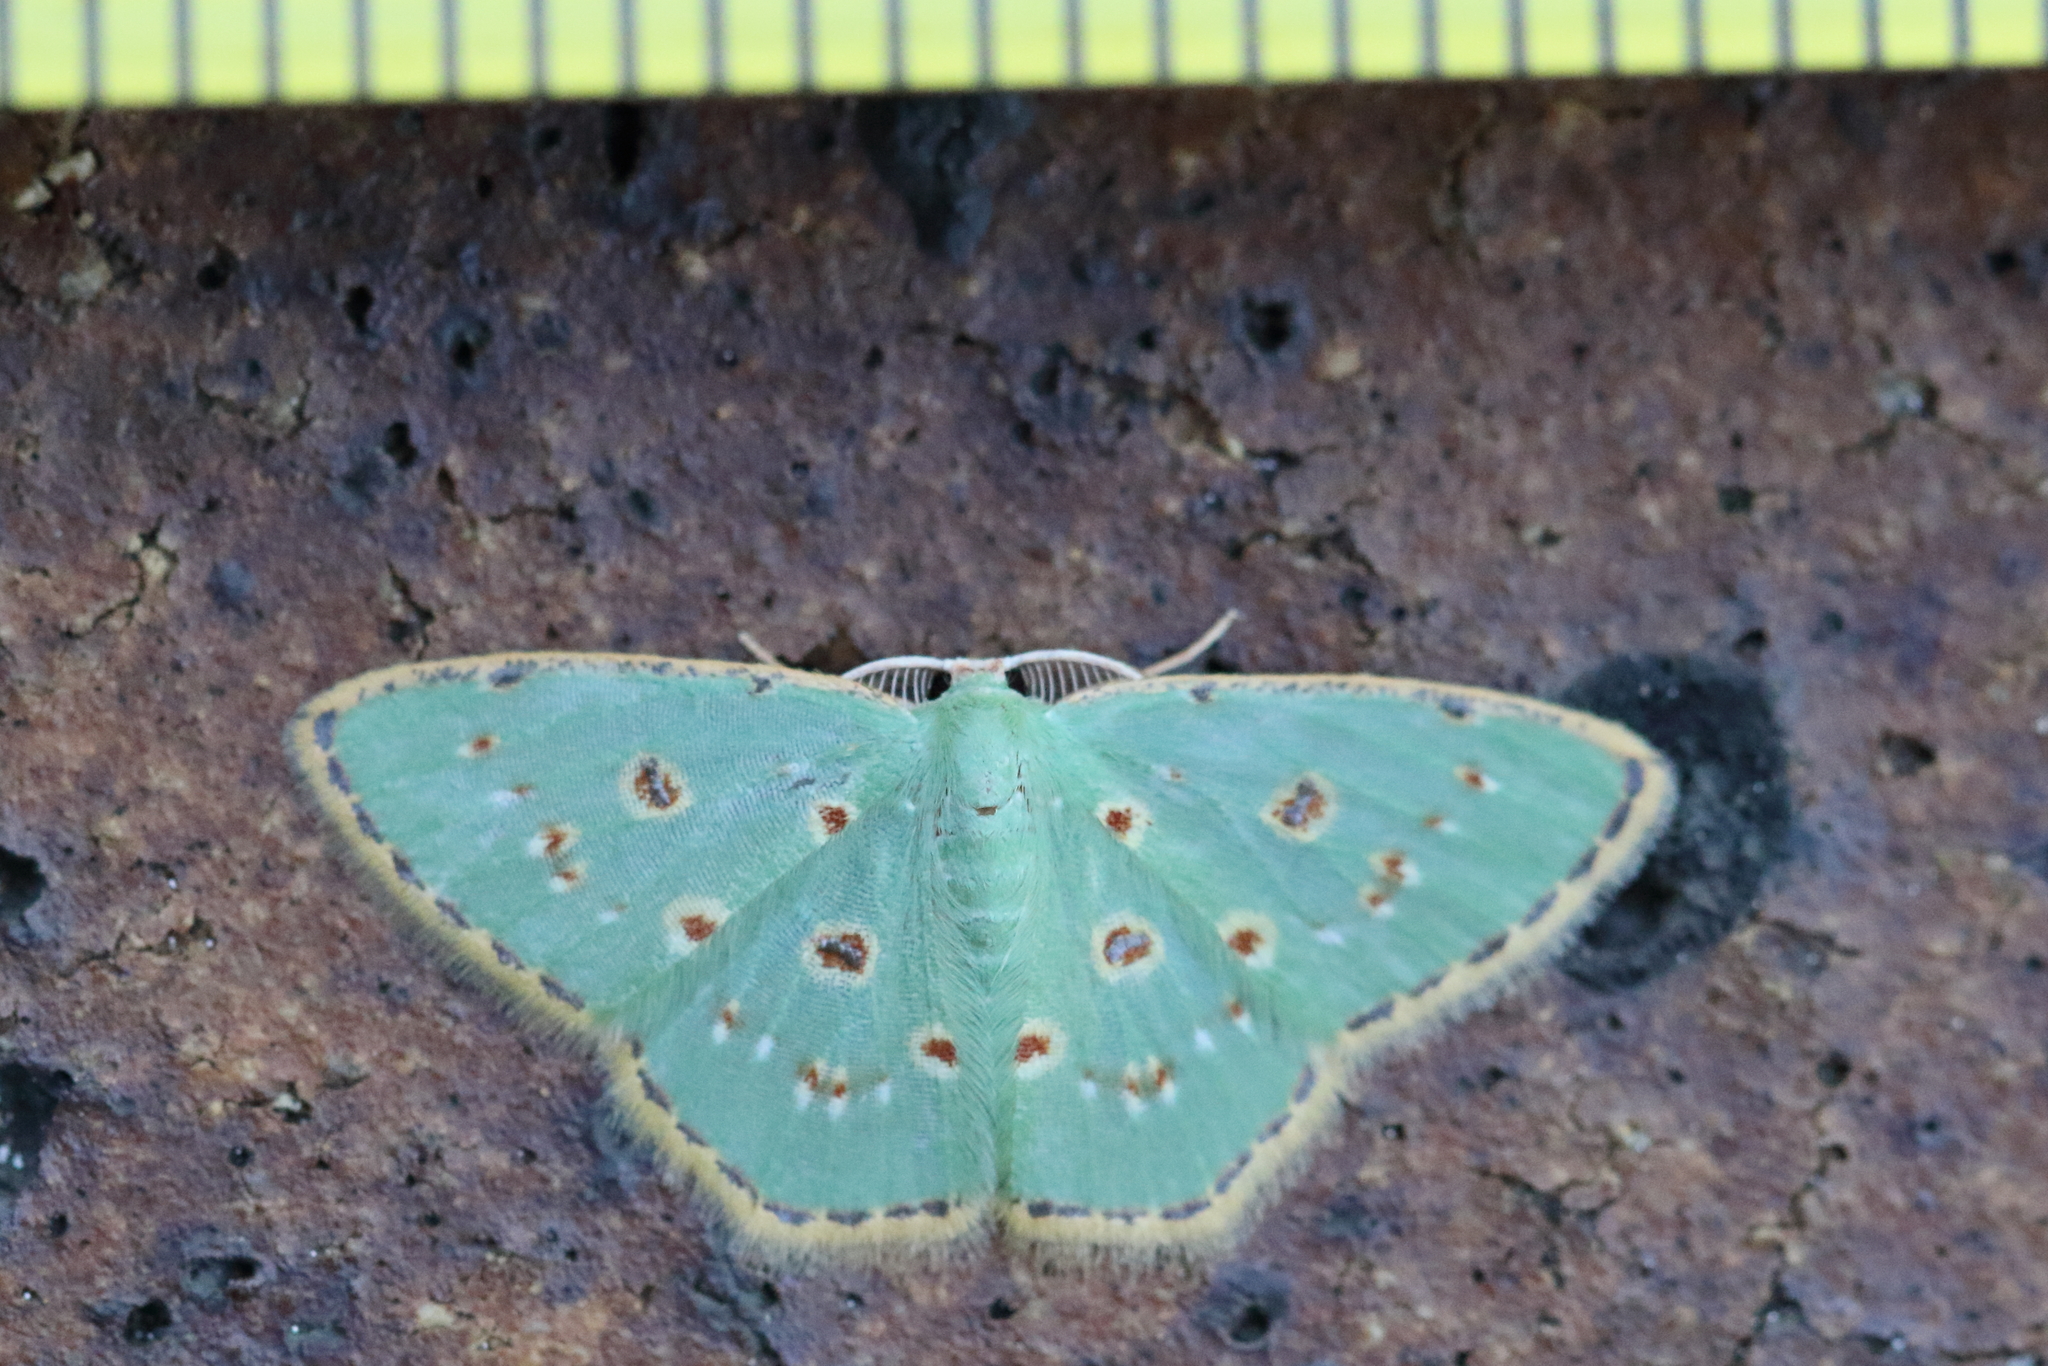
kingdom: Animalia
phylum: Arthropoda
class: Insecta
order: Lepidoptera
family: Geometridae
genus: Comostola
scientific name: Comostola laesaria
